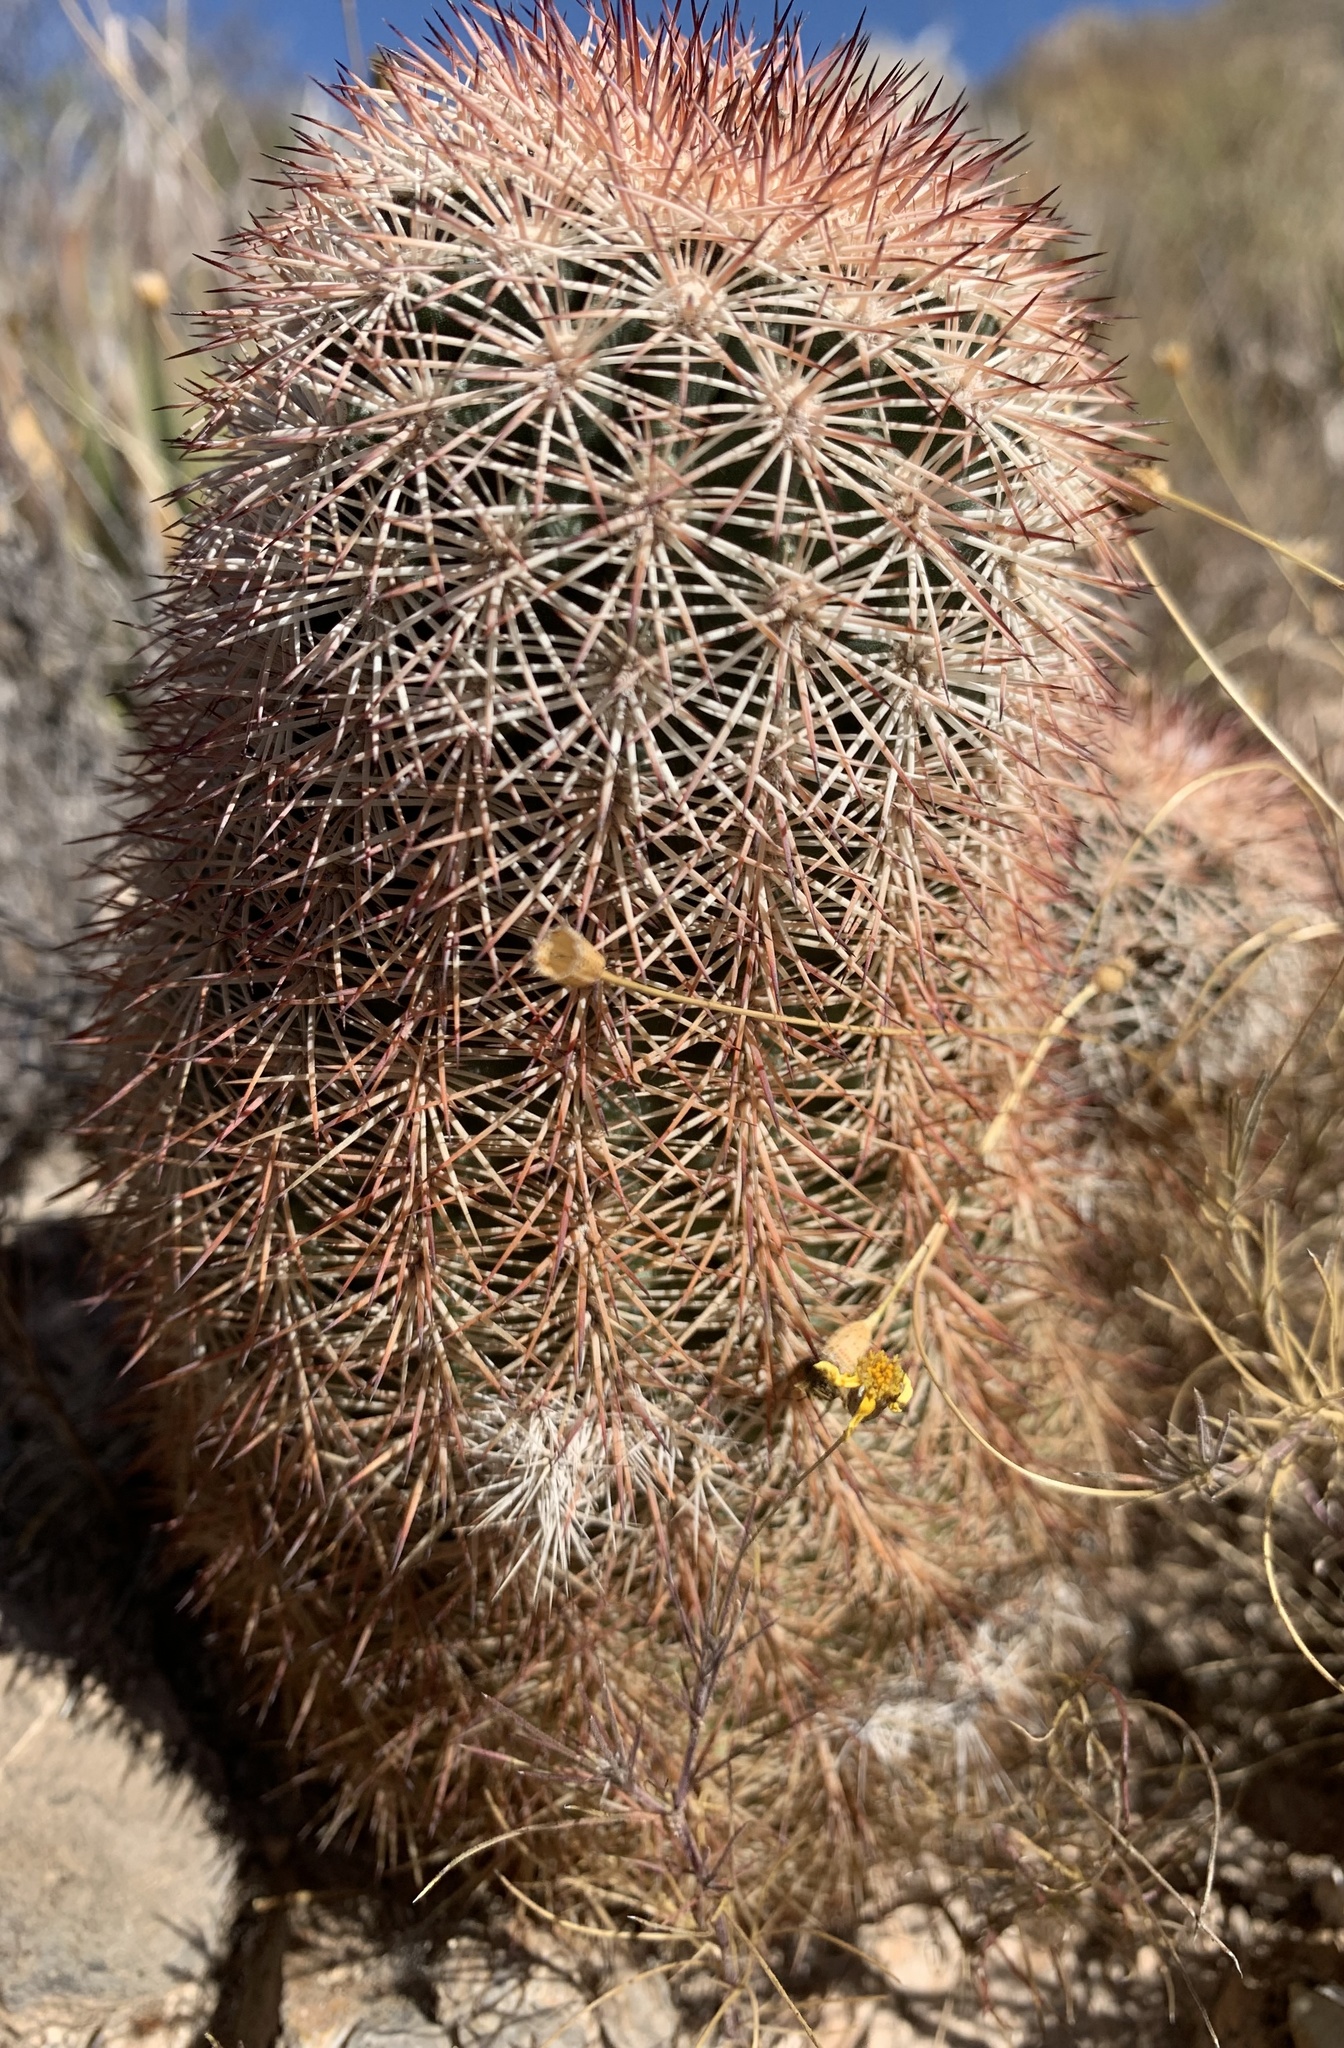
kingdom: Plantae
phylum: Tracheophyta
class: Magnoliopsida
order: Caryophyllales
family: Cactaceae
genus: Echinocereus
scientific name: Echinocereus dasyacanthus
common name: Spiny hedgehog cactus
